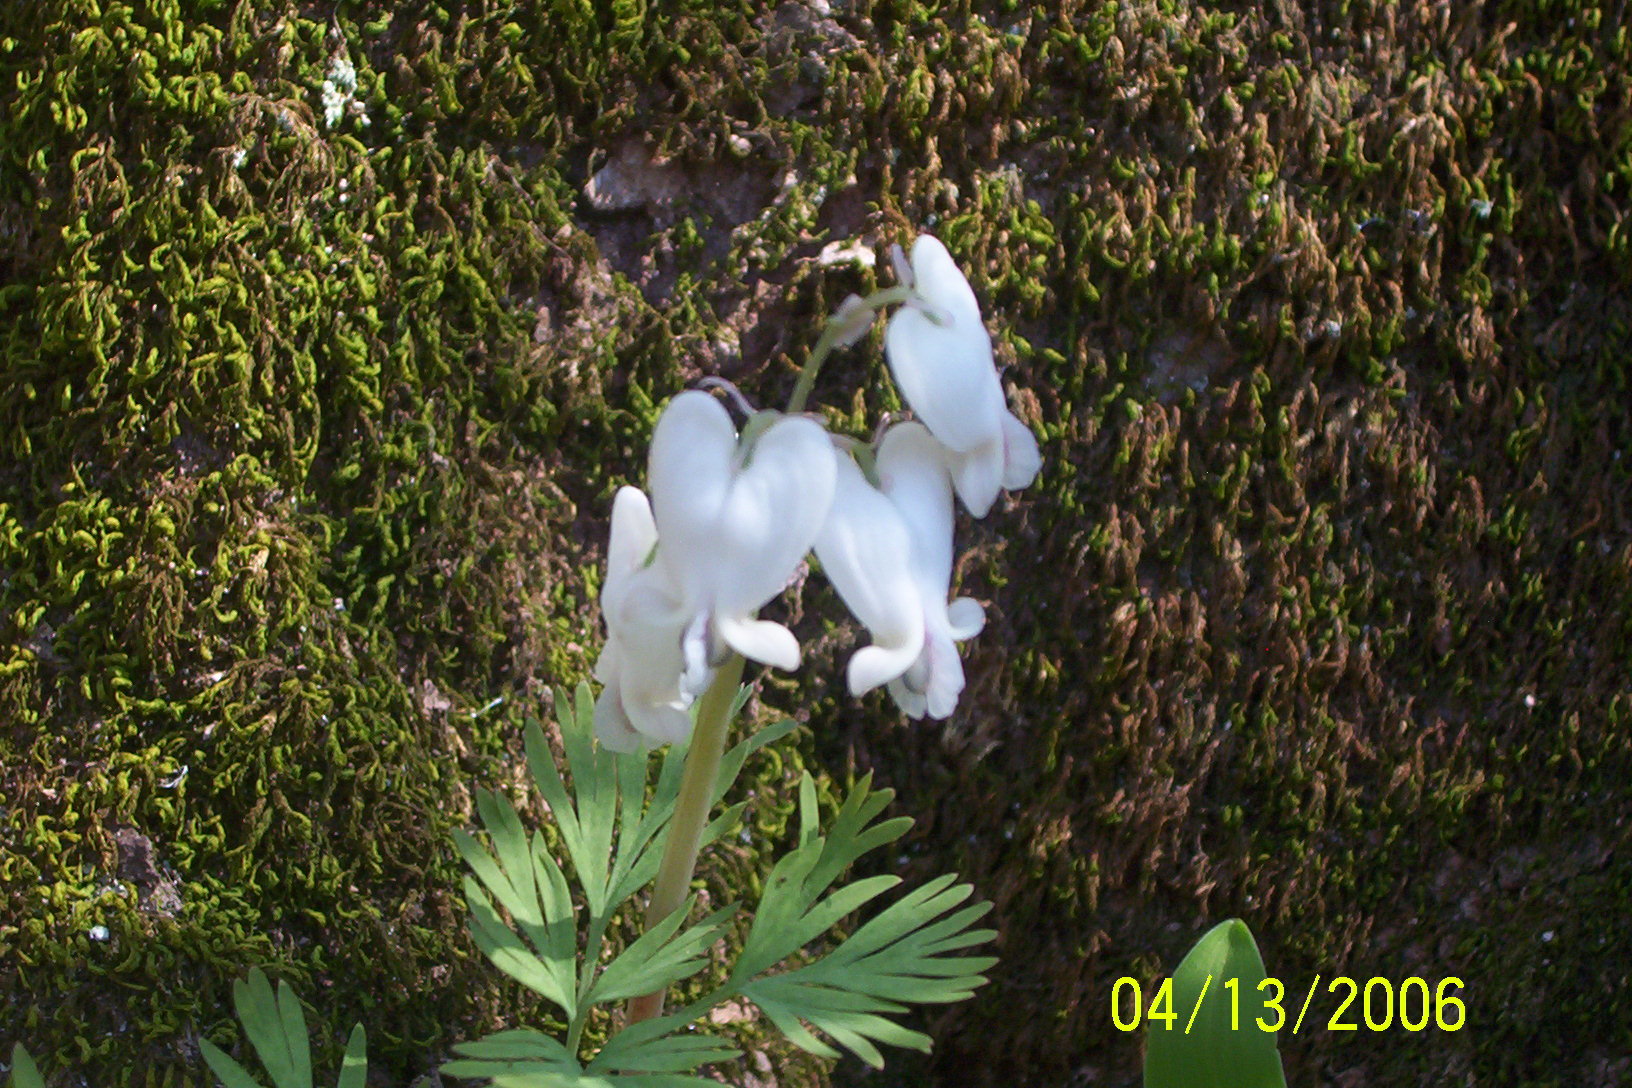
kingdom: Plantae
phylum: Tracheophyta
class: Magnoliopsida
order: Ranunculales
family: Papaveraceae
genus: Dicentra
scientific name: Dicentra canadensis
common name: Squirrel-corn
